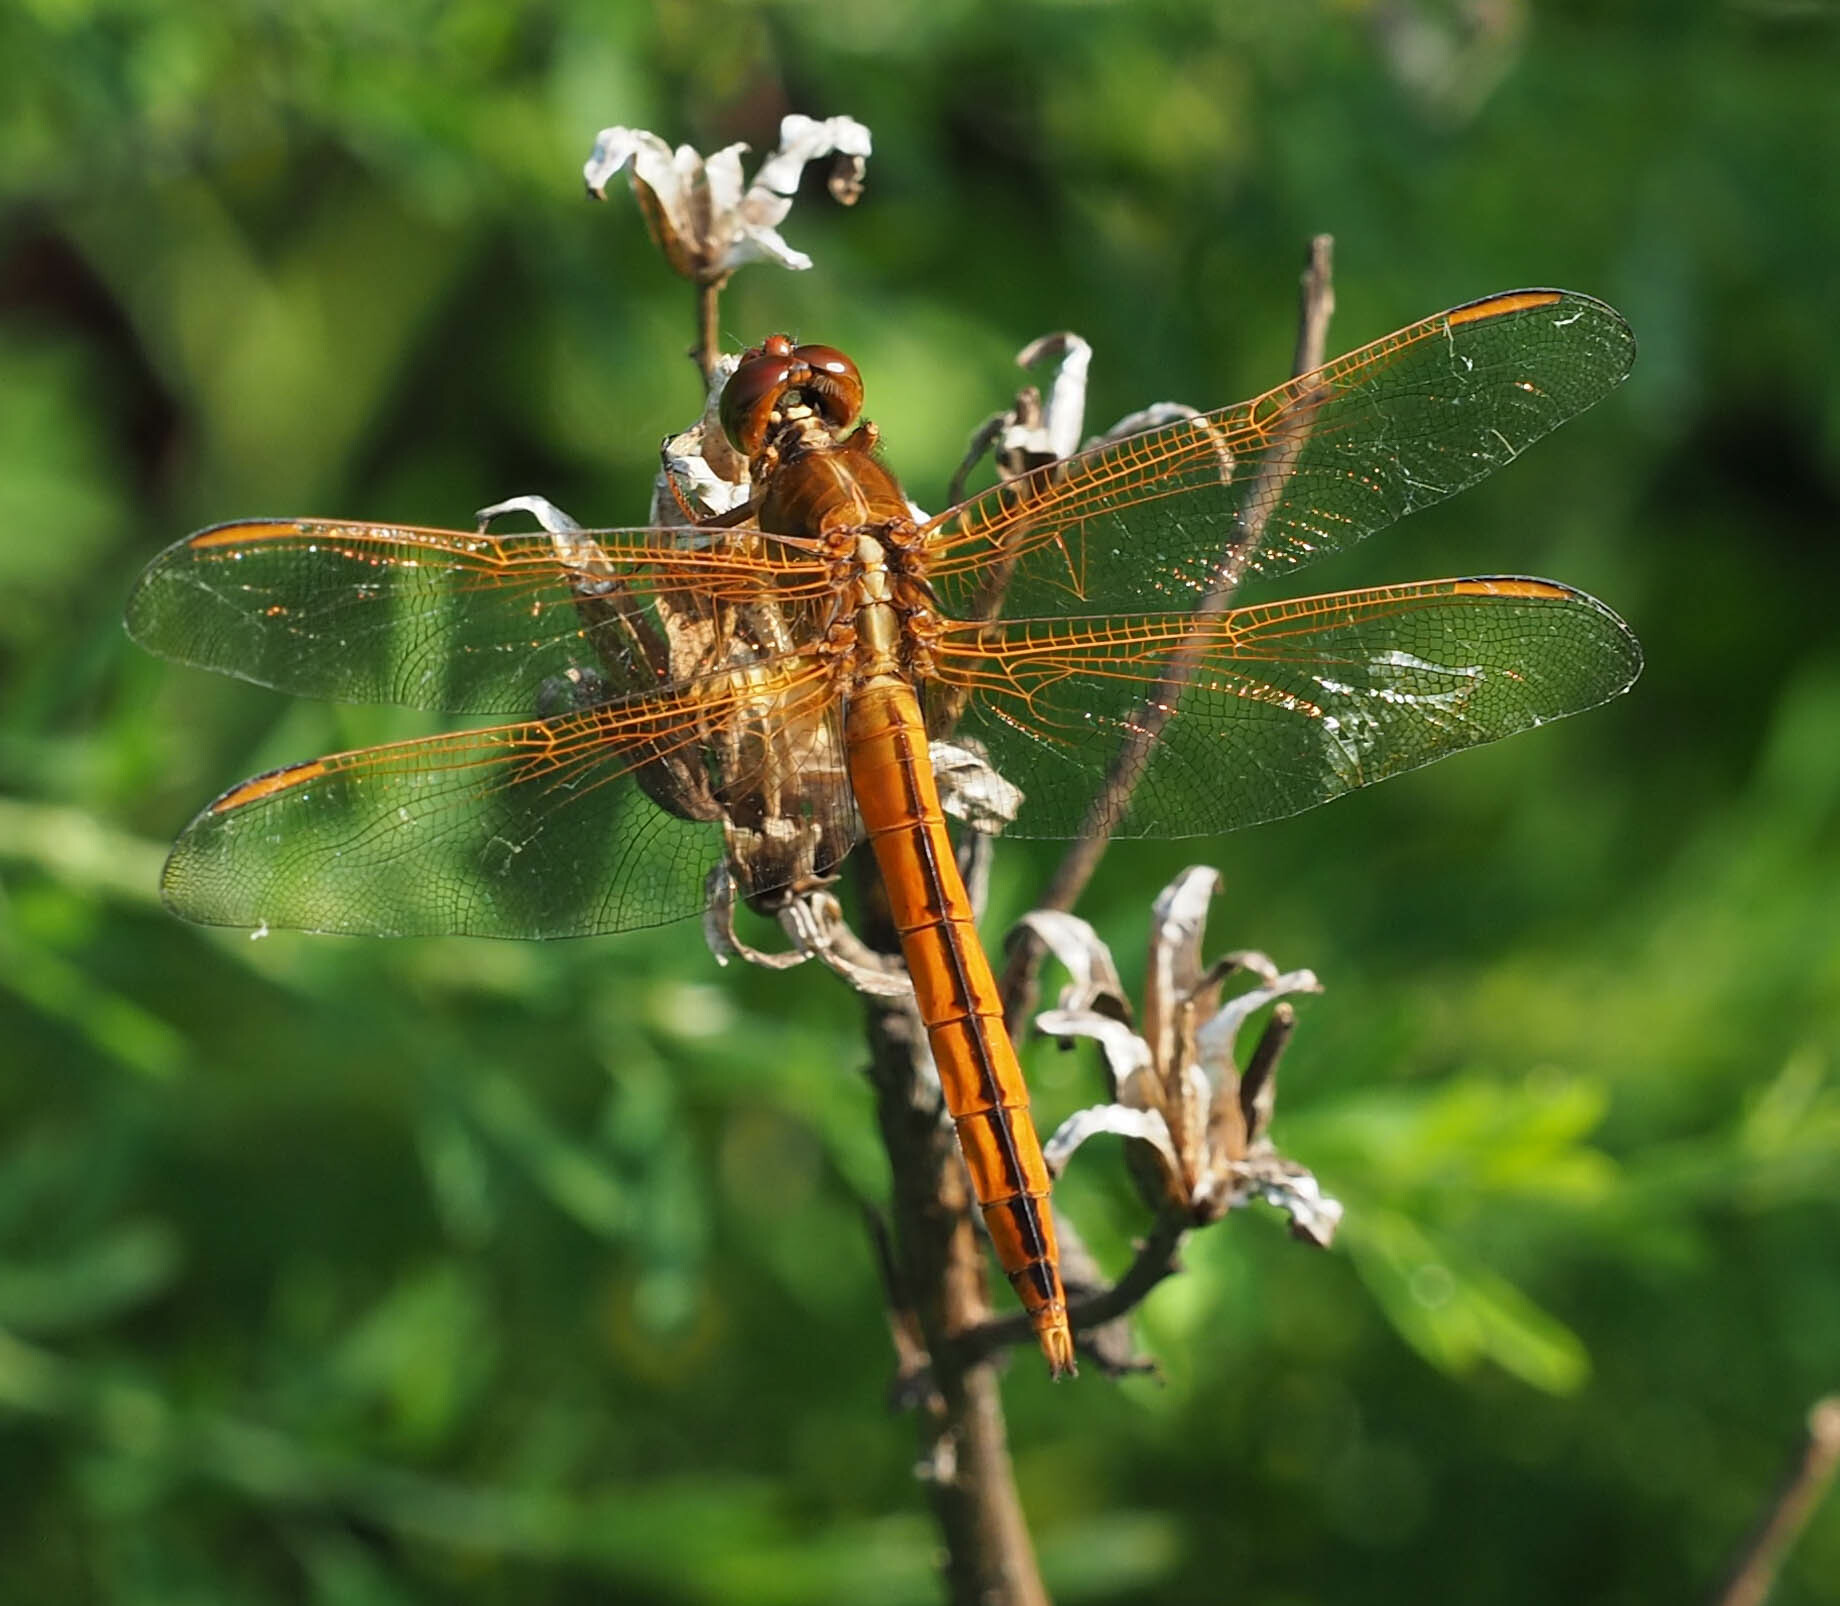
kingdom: Animalia
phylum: Arthropoda
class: Insecta
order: Odonata
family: Libellulidae
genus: Libellula
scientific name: Libellula needhami
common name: Needham's skimmer
